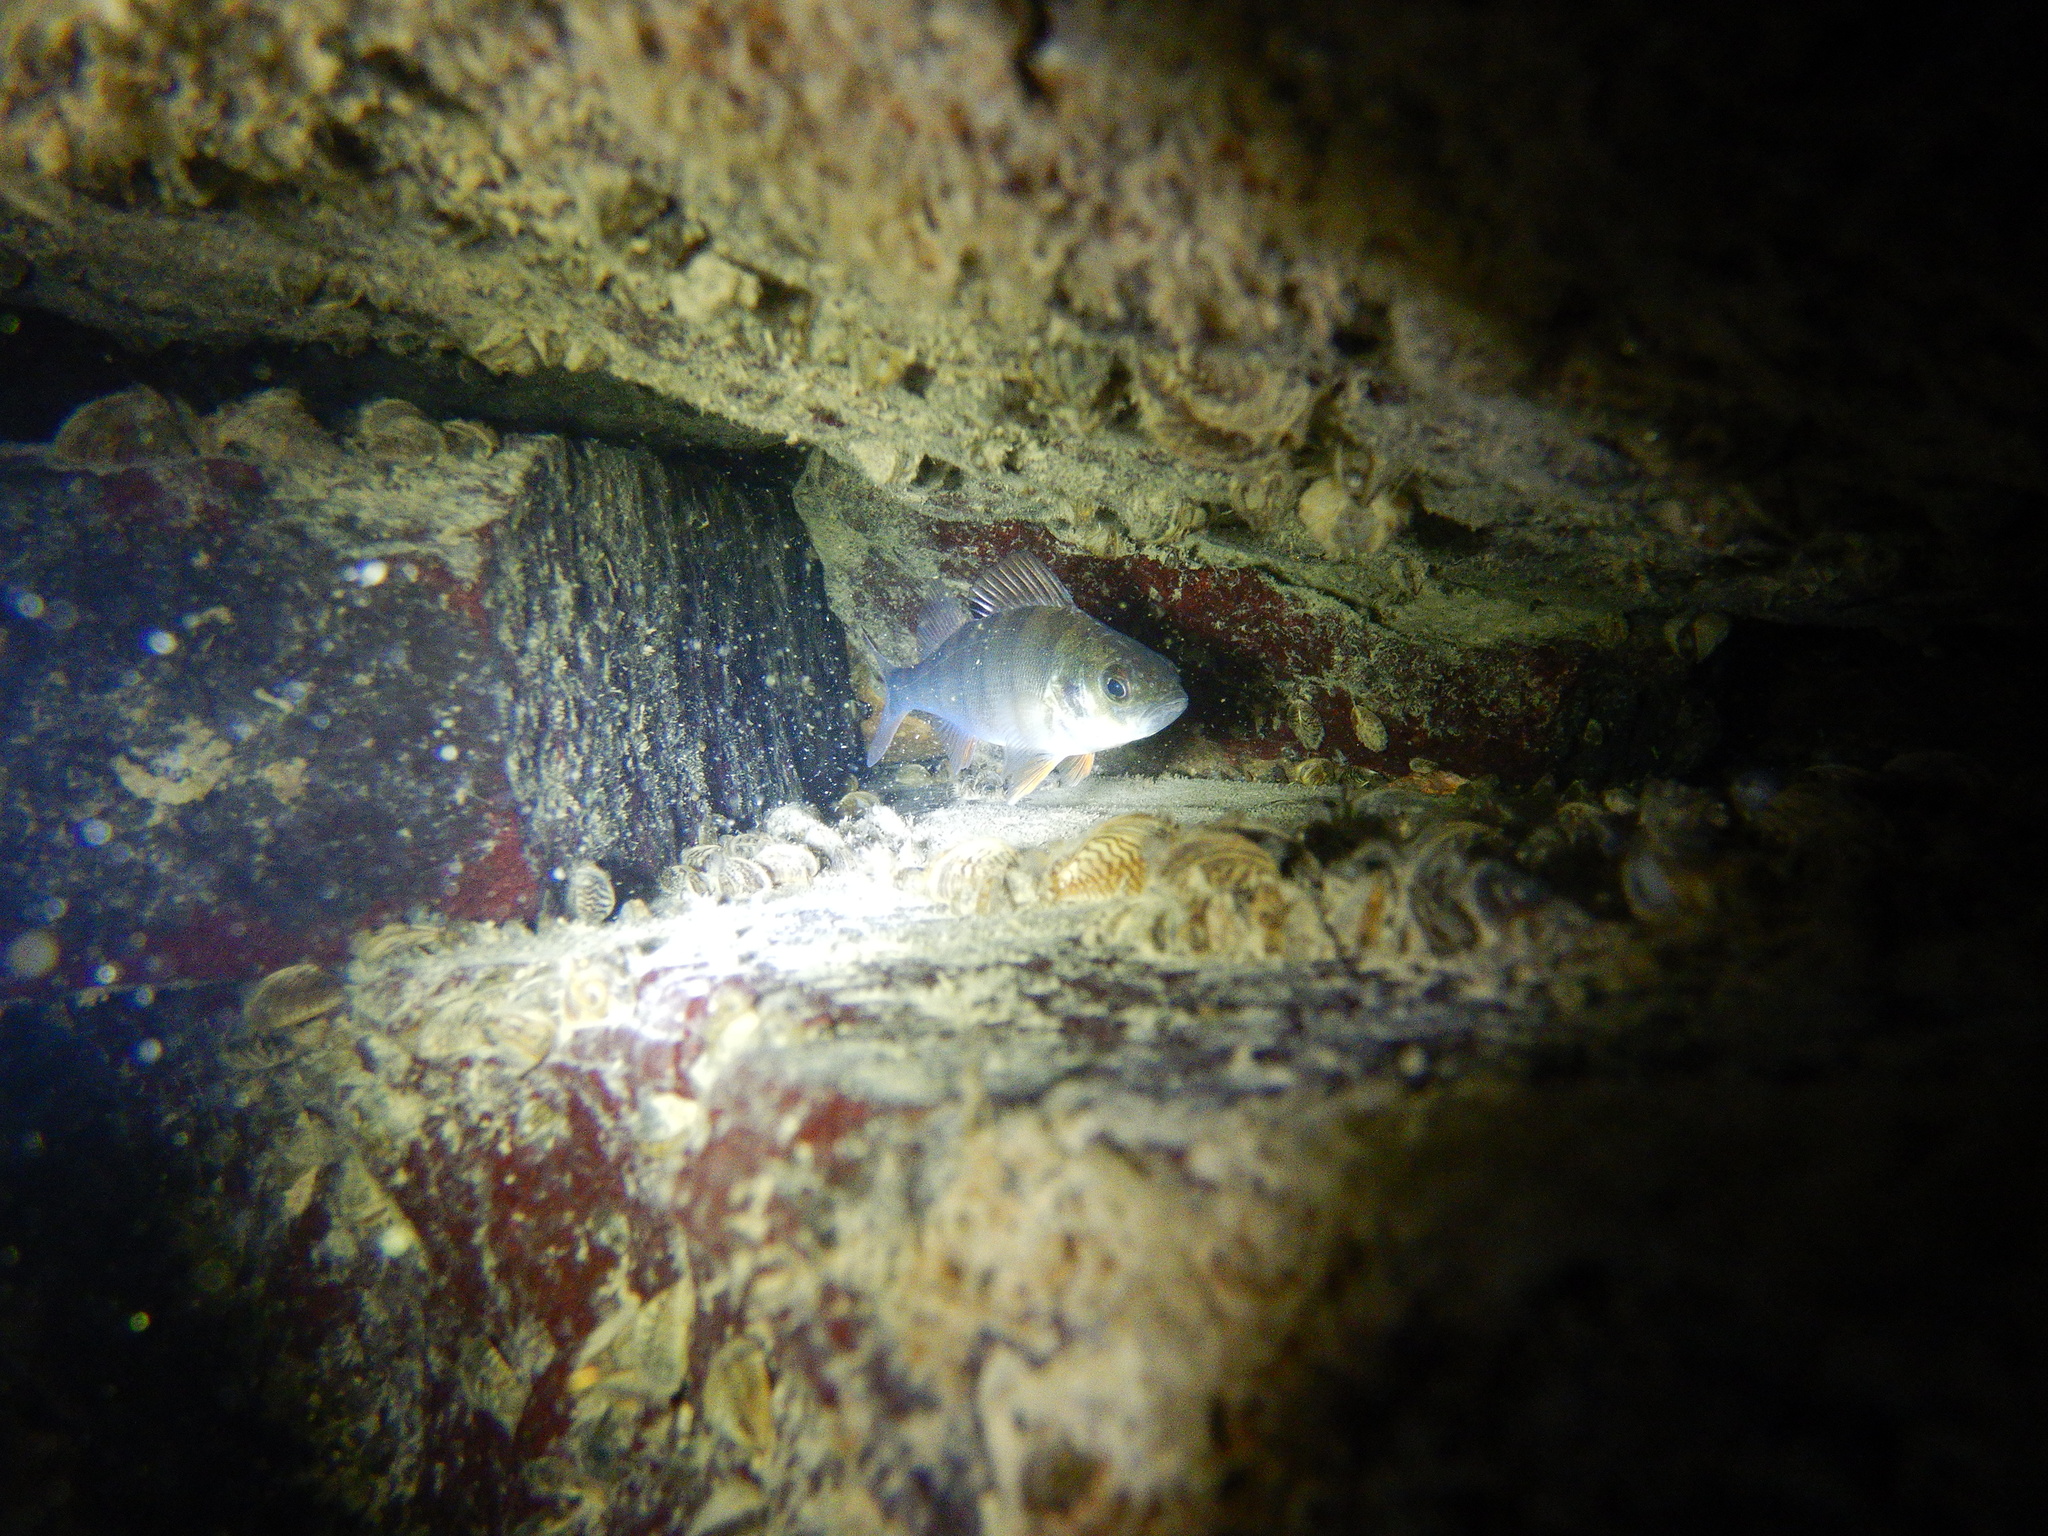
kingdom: Animalia
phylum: Chordata
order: Perciformes
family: Percidae
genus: Perca
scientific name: Perca fluviatilis
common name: Perch
